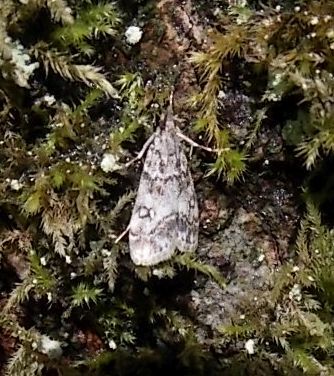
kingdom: Animalia
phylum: Arthropoda
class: Insecta
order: Lepidoptera
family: Crambidae
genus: Eudonia
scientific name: Eudonia lacustrata
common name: Little grey
